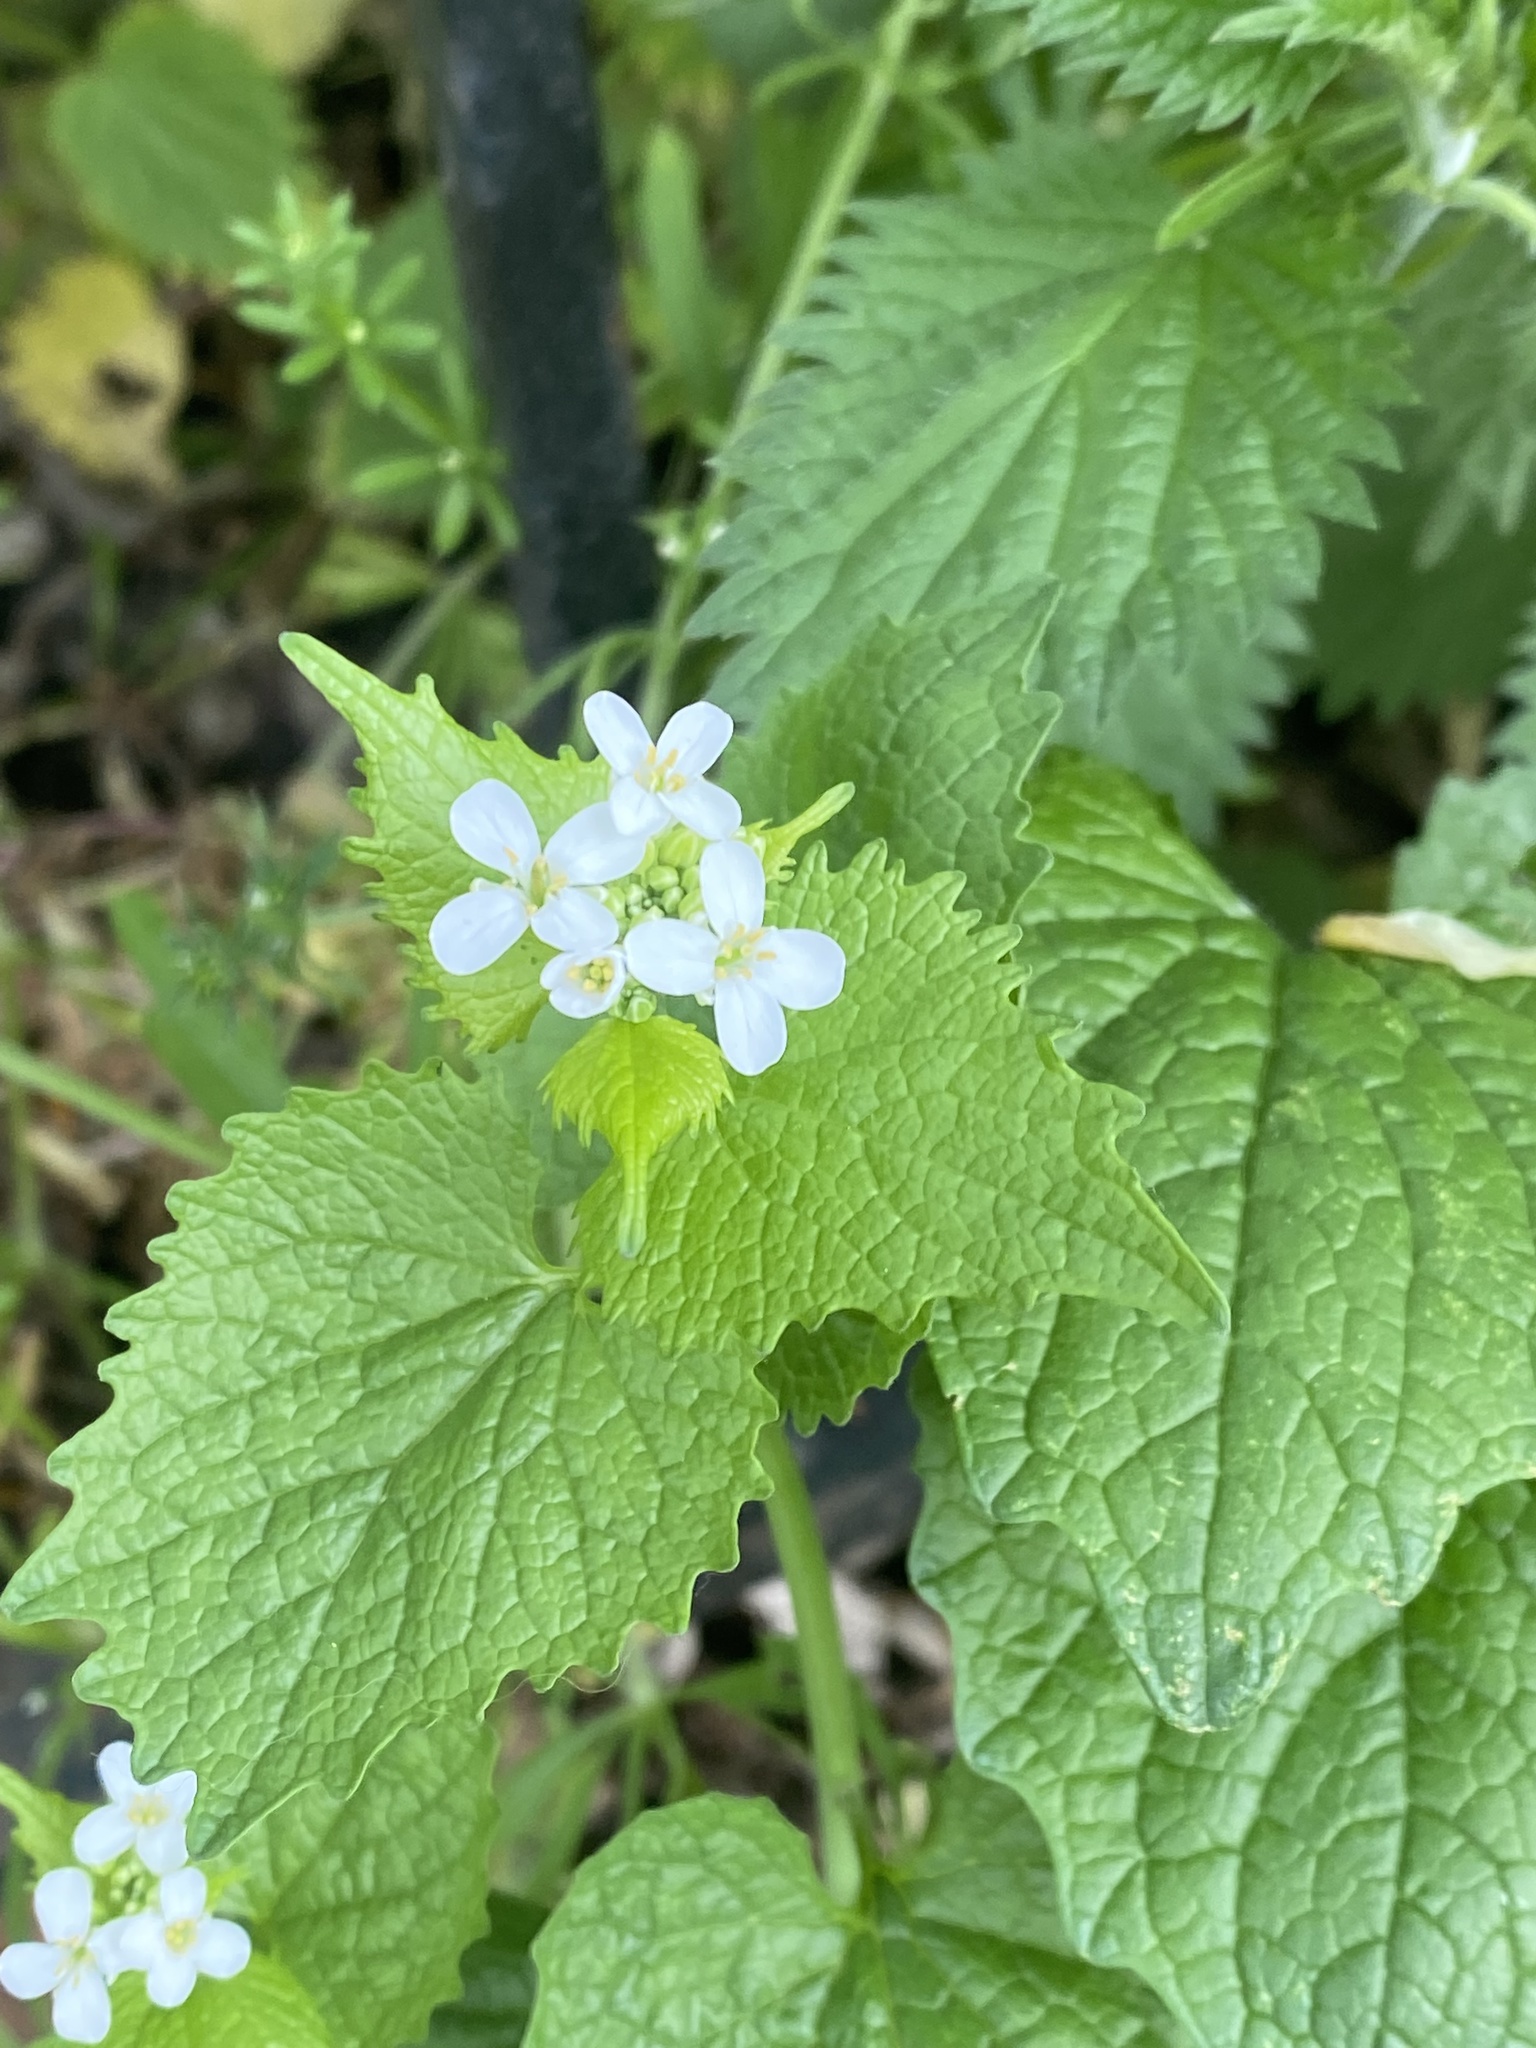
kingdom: Plantae
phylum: Tracheophyta
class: Magnoliopsida
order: Brassicales
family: Brassicaceae
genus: Alliaria
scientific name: Alliaria petiolata
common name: Garlic mustard
